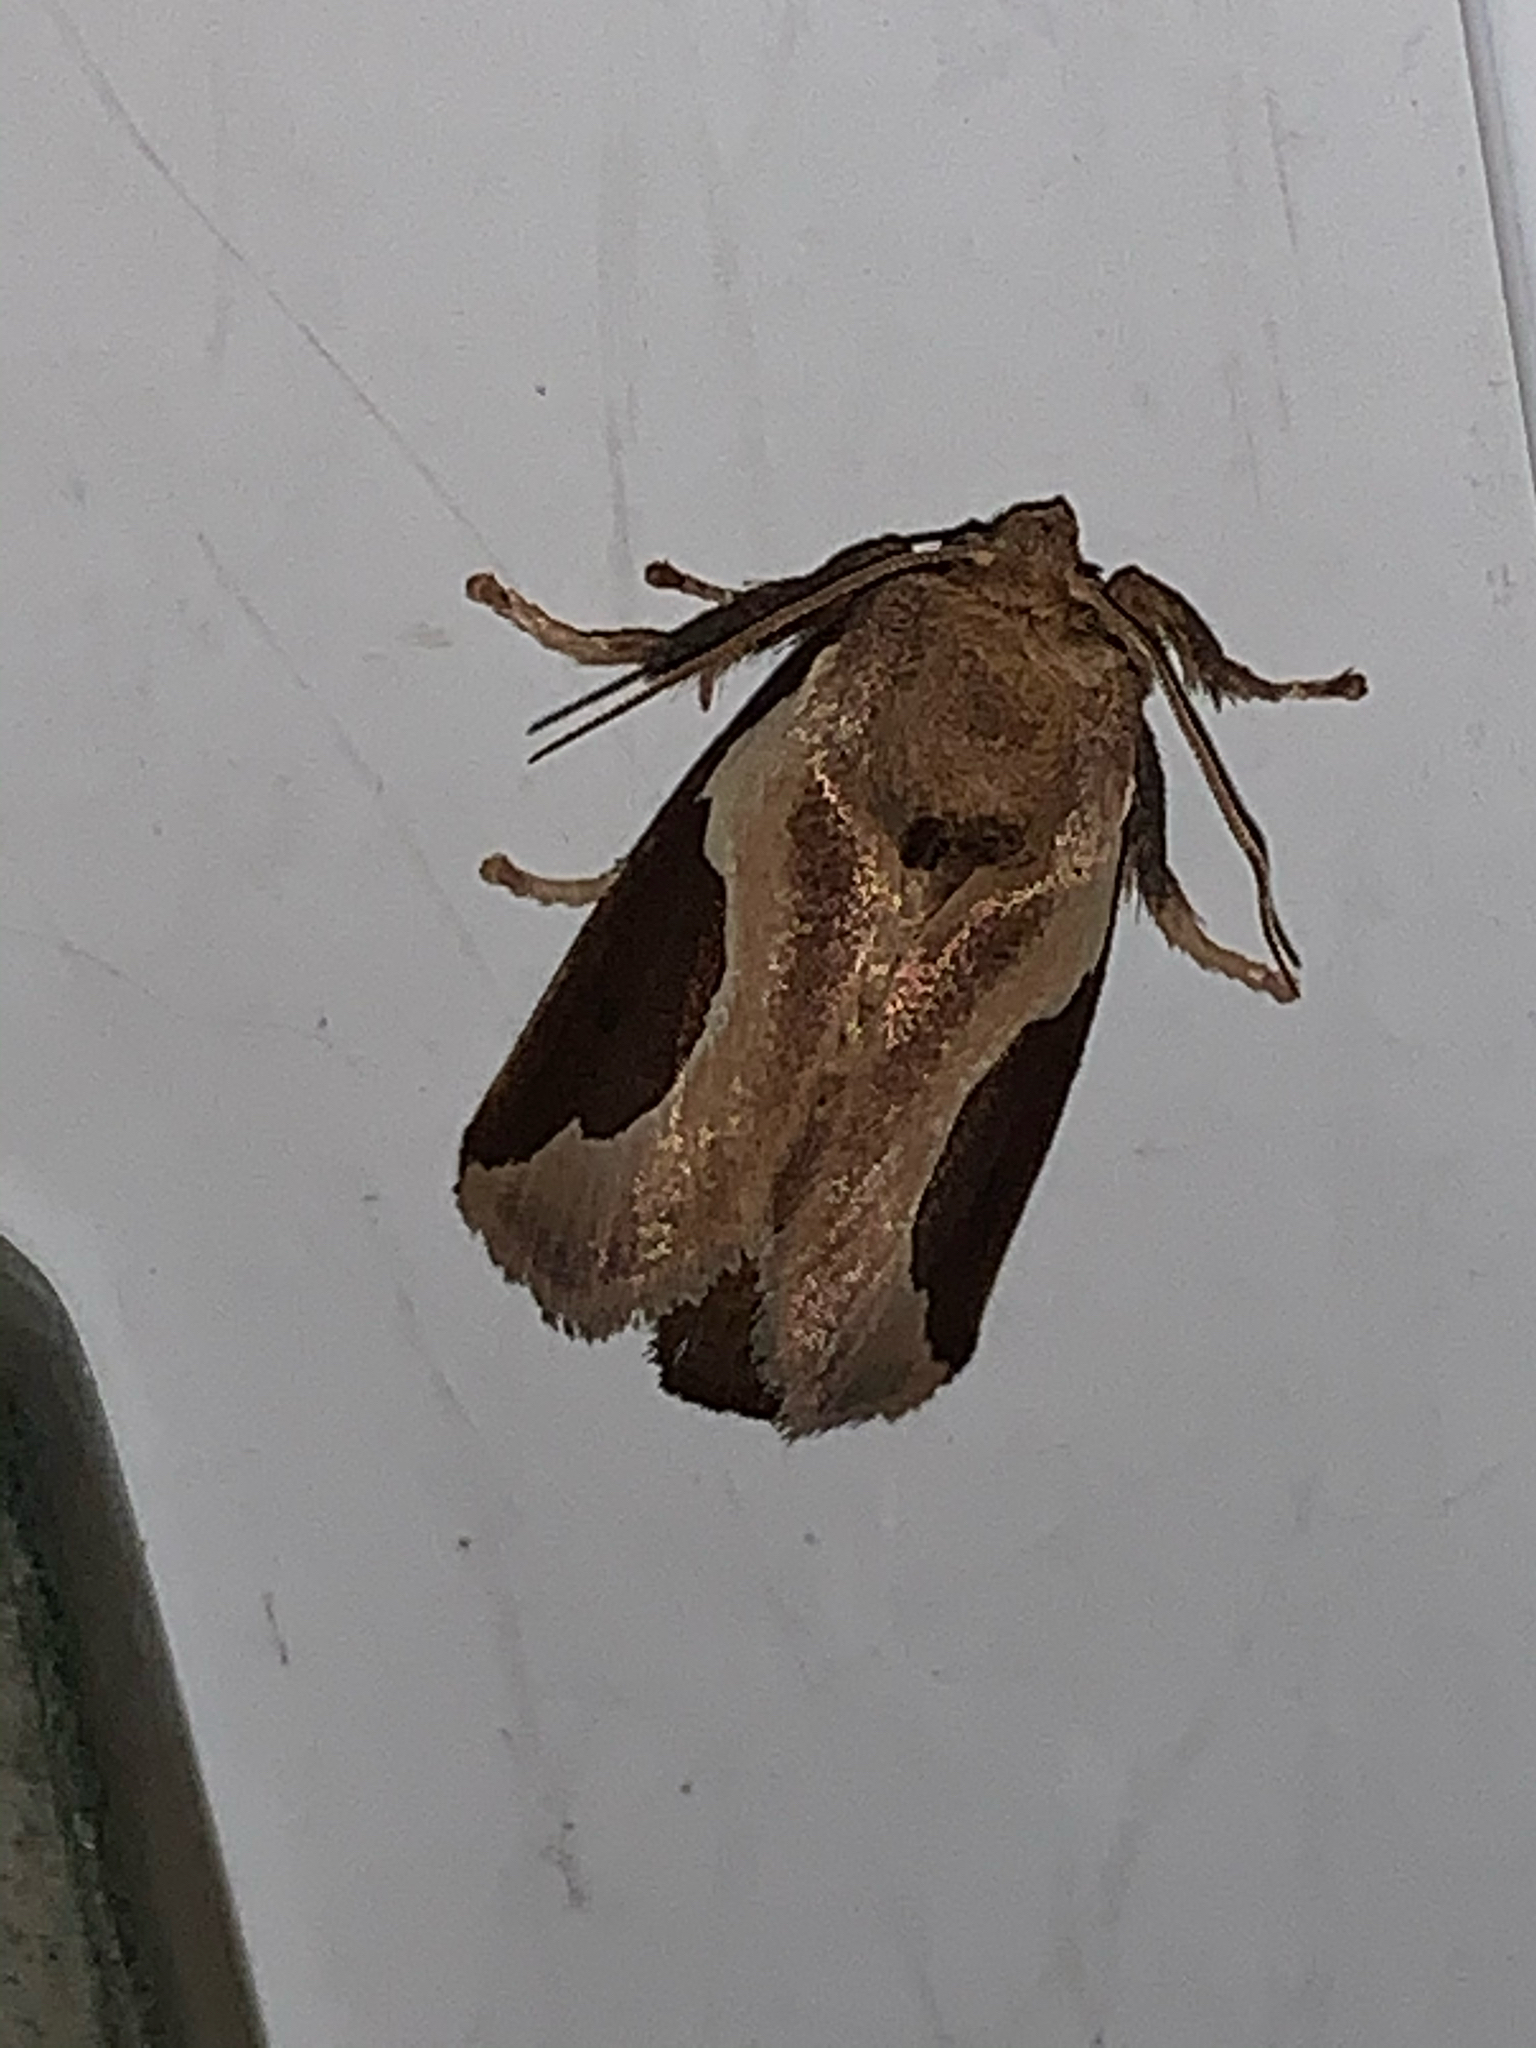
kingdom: Animalia
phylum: Arthropoda
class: Insecta
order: Lepidoptera
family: Limacodidae
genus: Prolimacodes
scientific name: Prolimacodes badia
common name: Skiff moth
